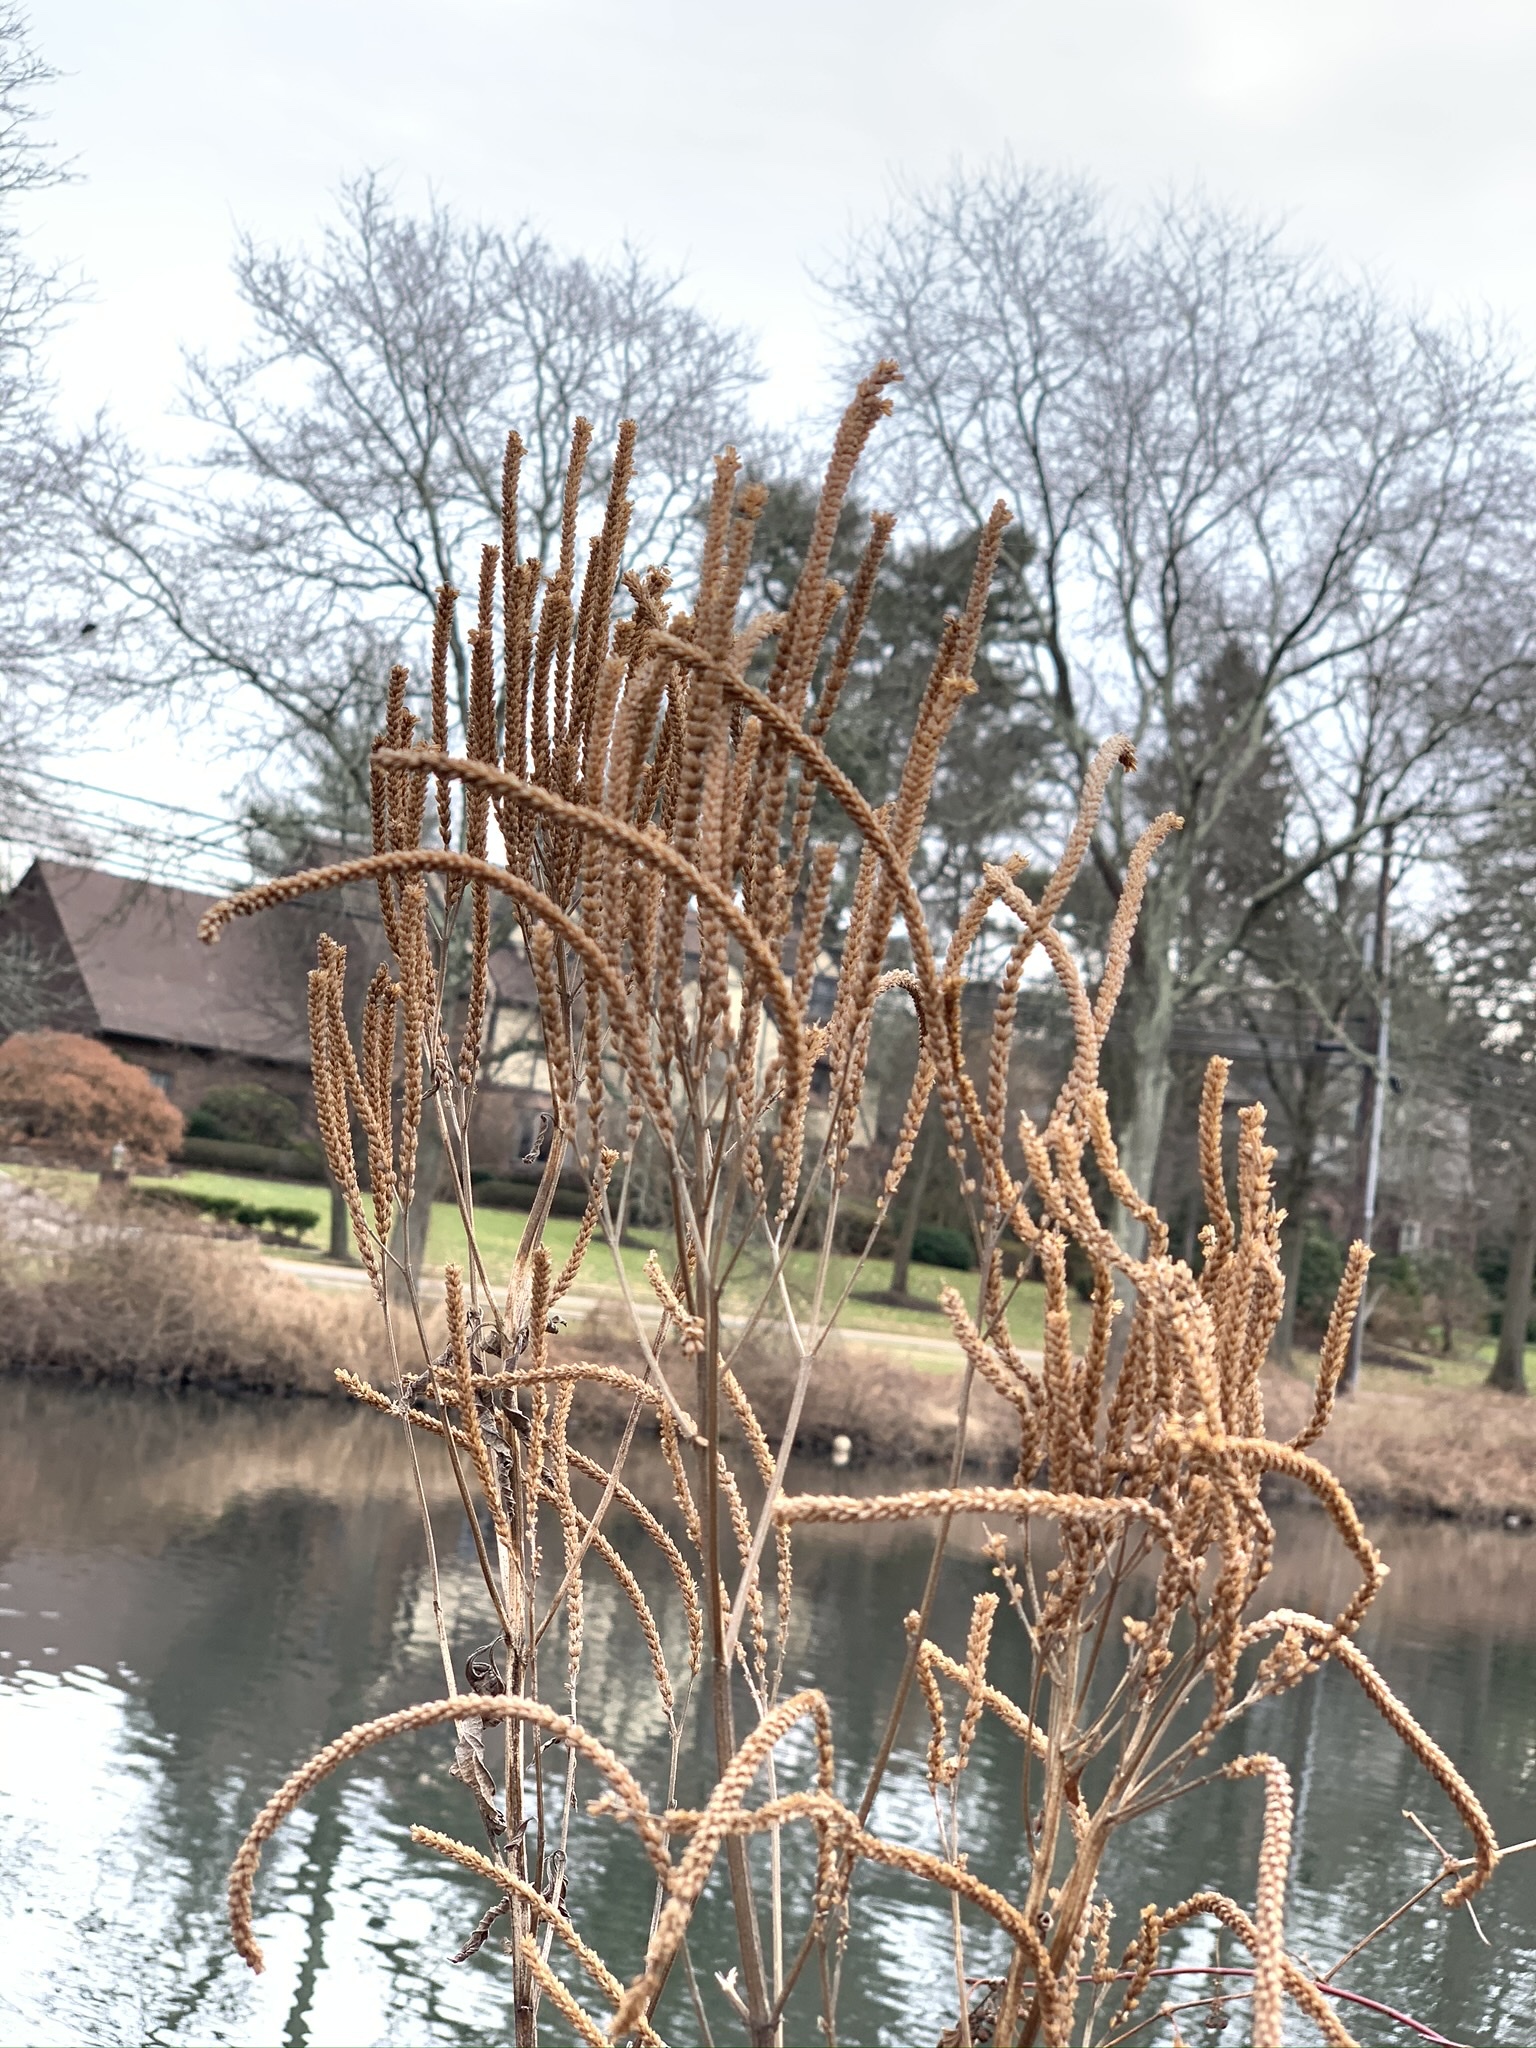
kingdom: Plantae
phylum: Tracheophyta
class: Magnoliopsida
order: Lamiales
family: Verbenaceae
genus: Verbena
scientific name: Verbena hastata
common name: American blue vervain
